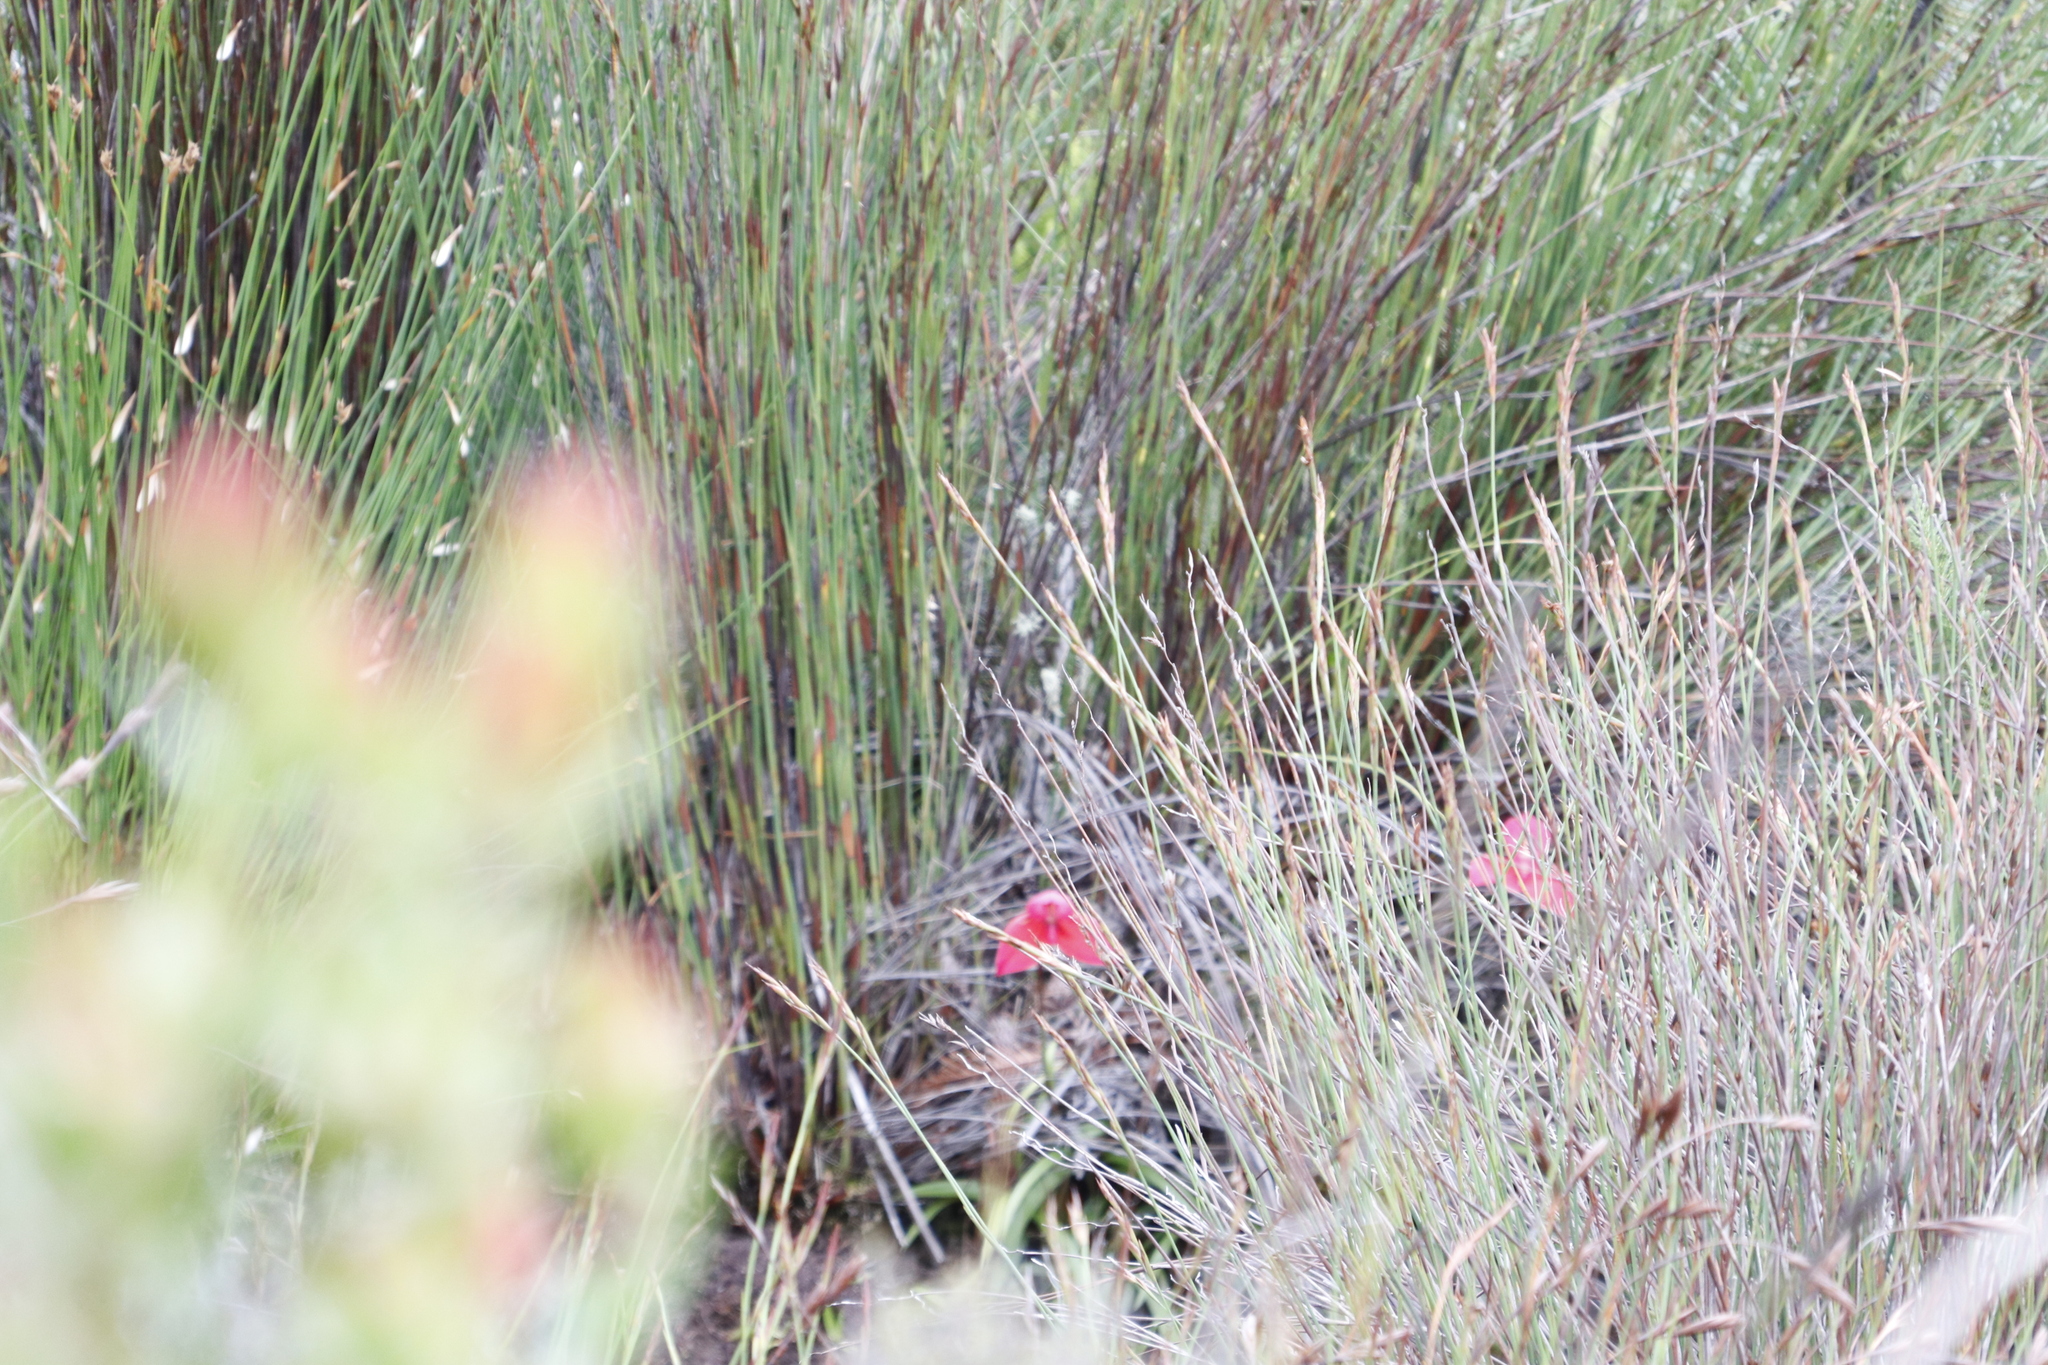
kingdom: Plantae
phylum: Tracheophyta
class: Liliopsida
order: Asparagales
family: Orchidaceae
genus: Disa
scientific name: Disa uniflora
